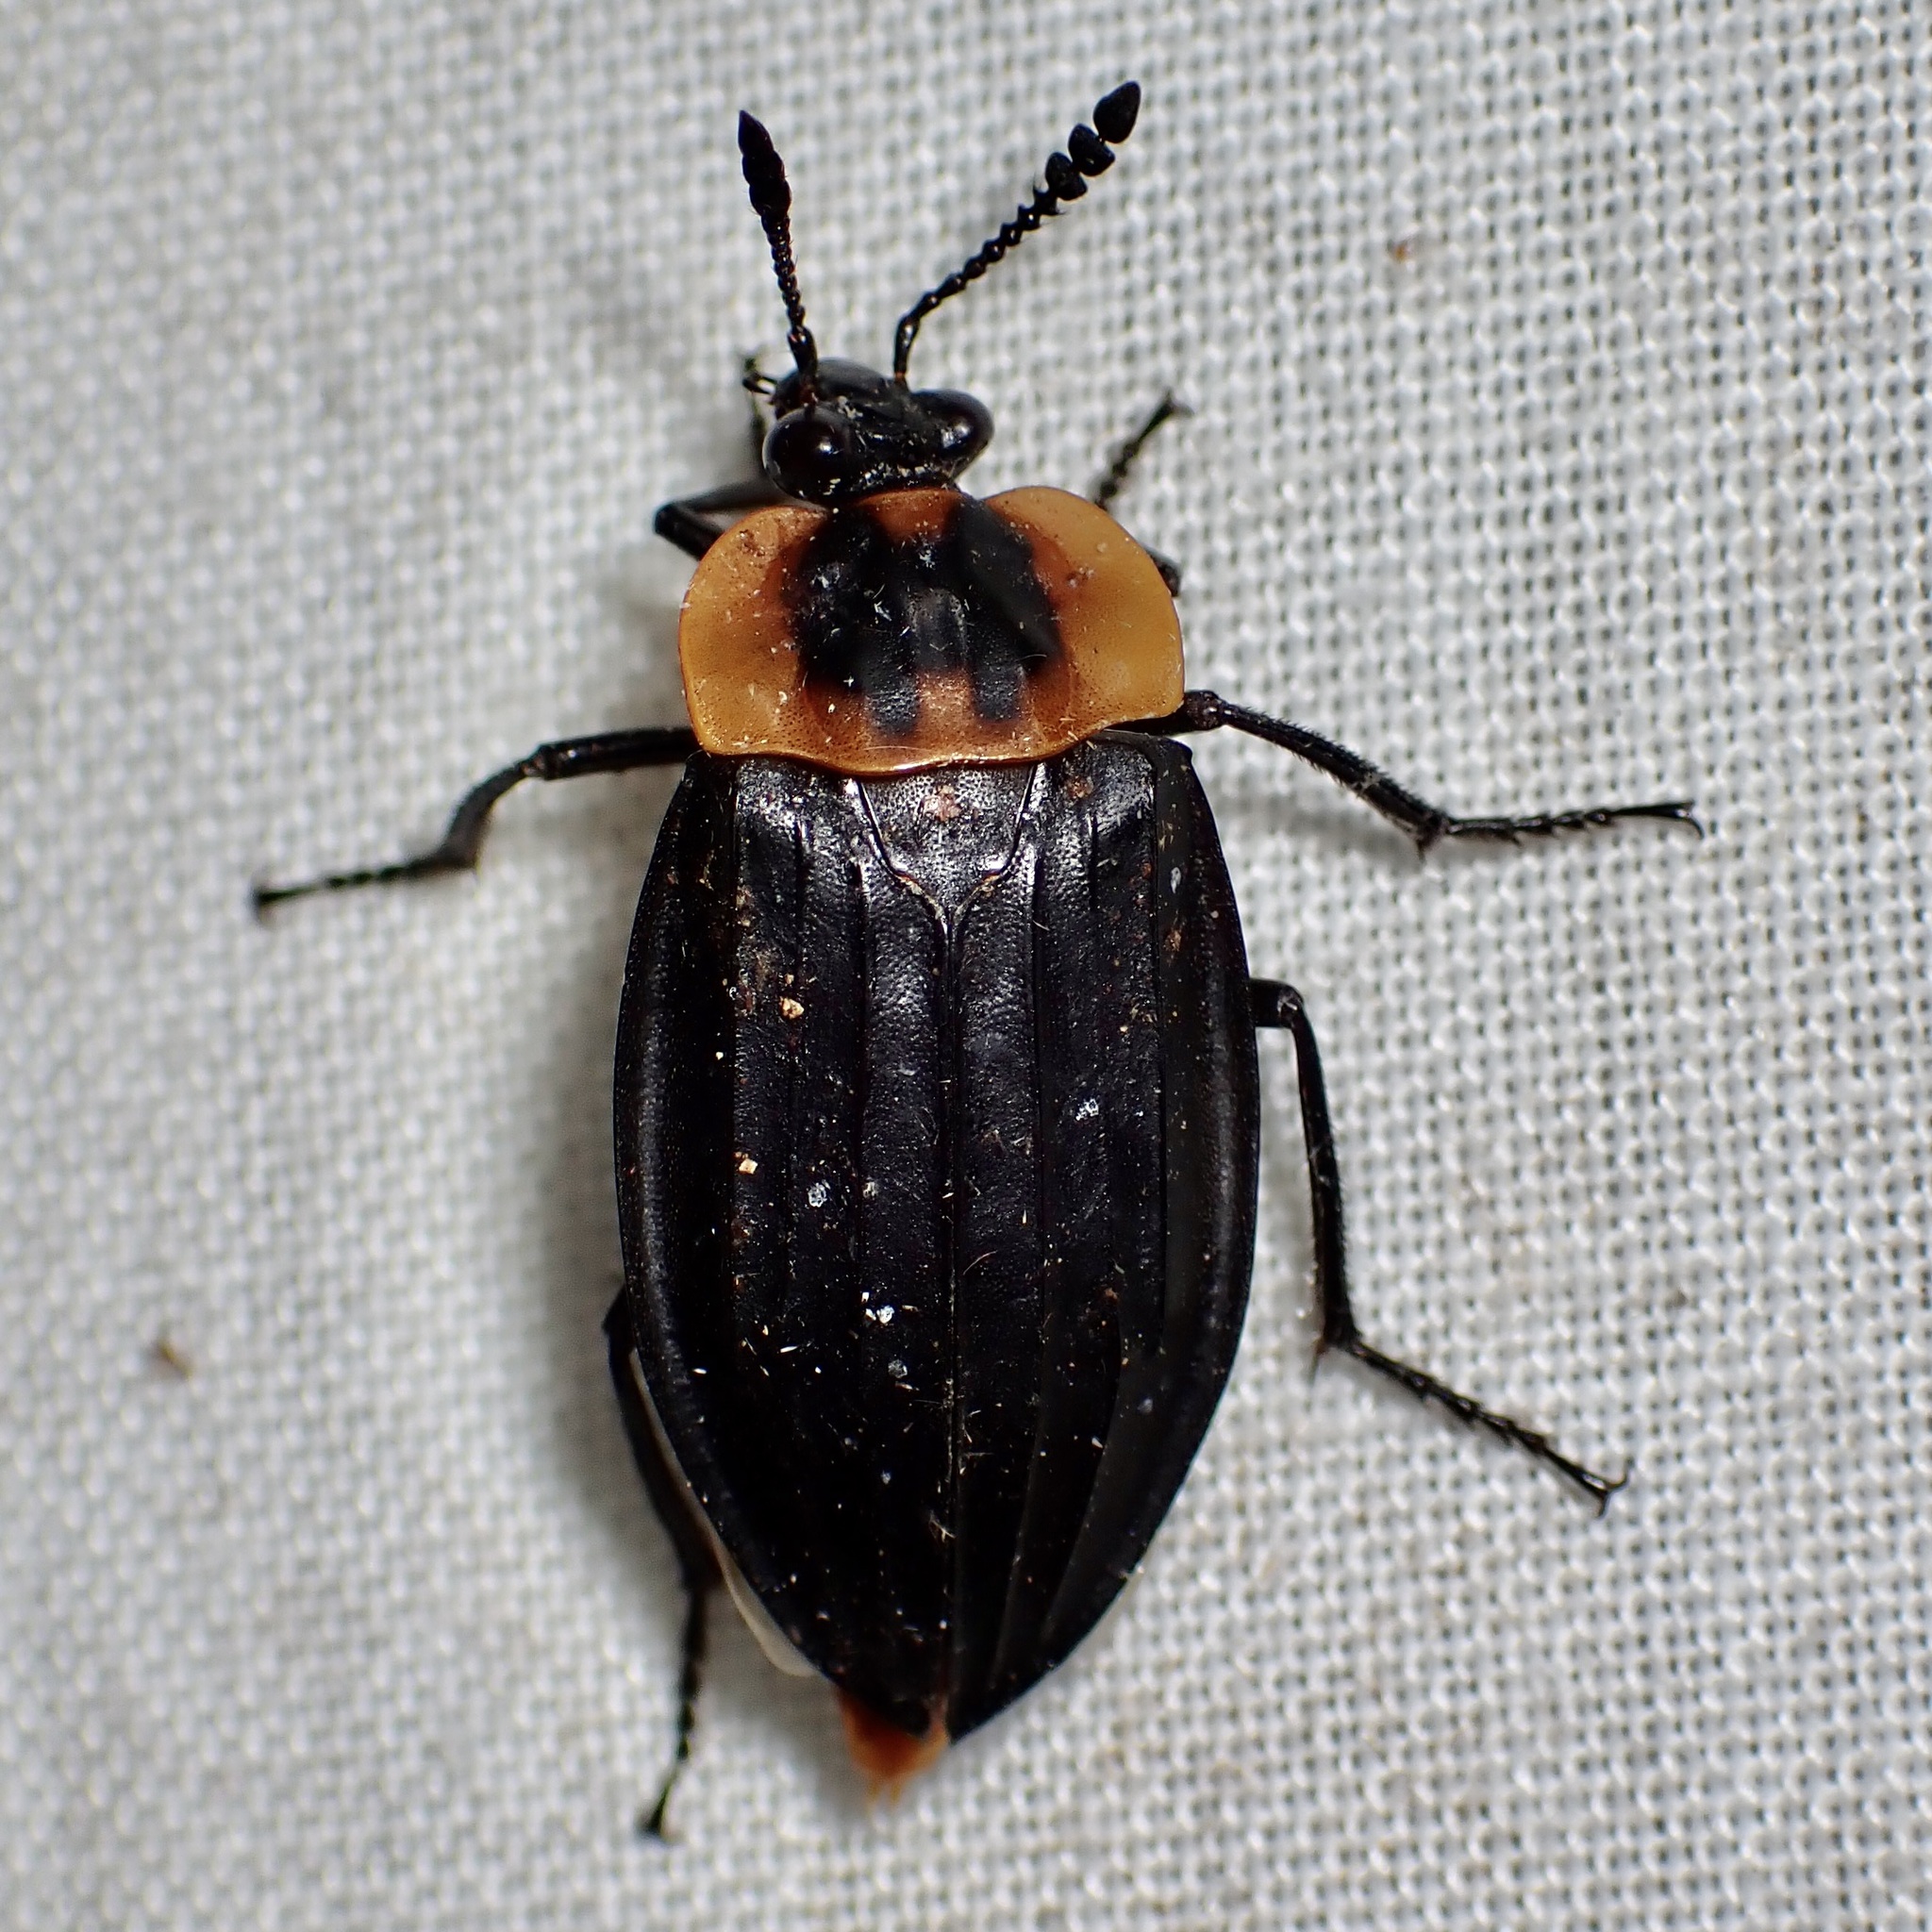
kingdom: Animalia
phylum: Arthropoda
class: Insecta
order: Coleoptera
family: Staphylinidae
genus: Oxelytrum
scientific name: Oxelytrum discicolle
